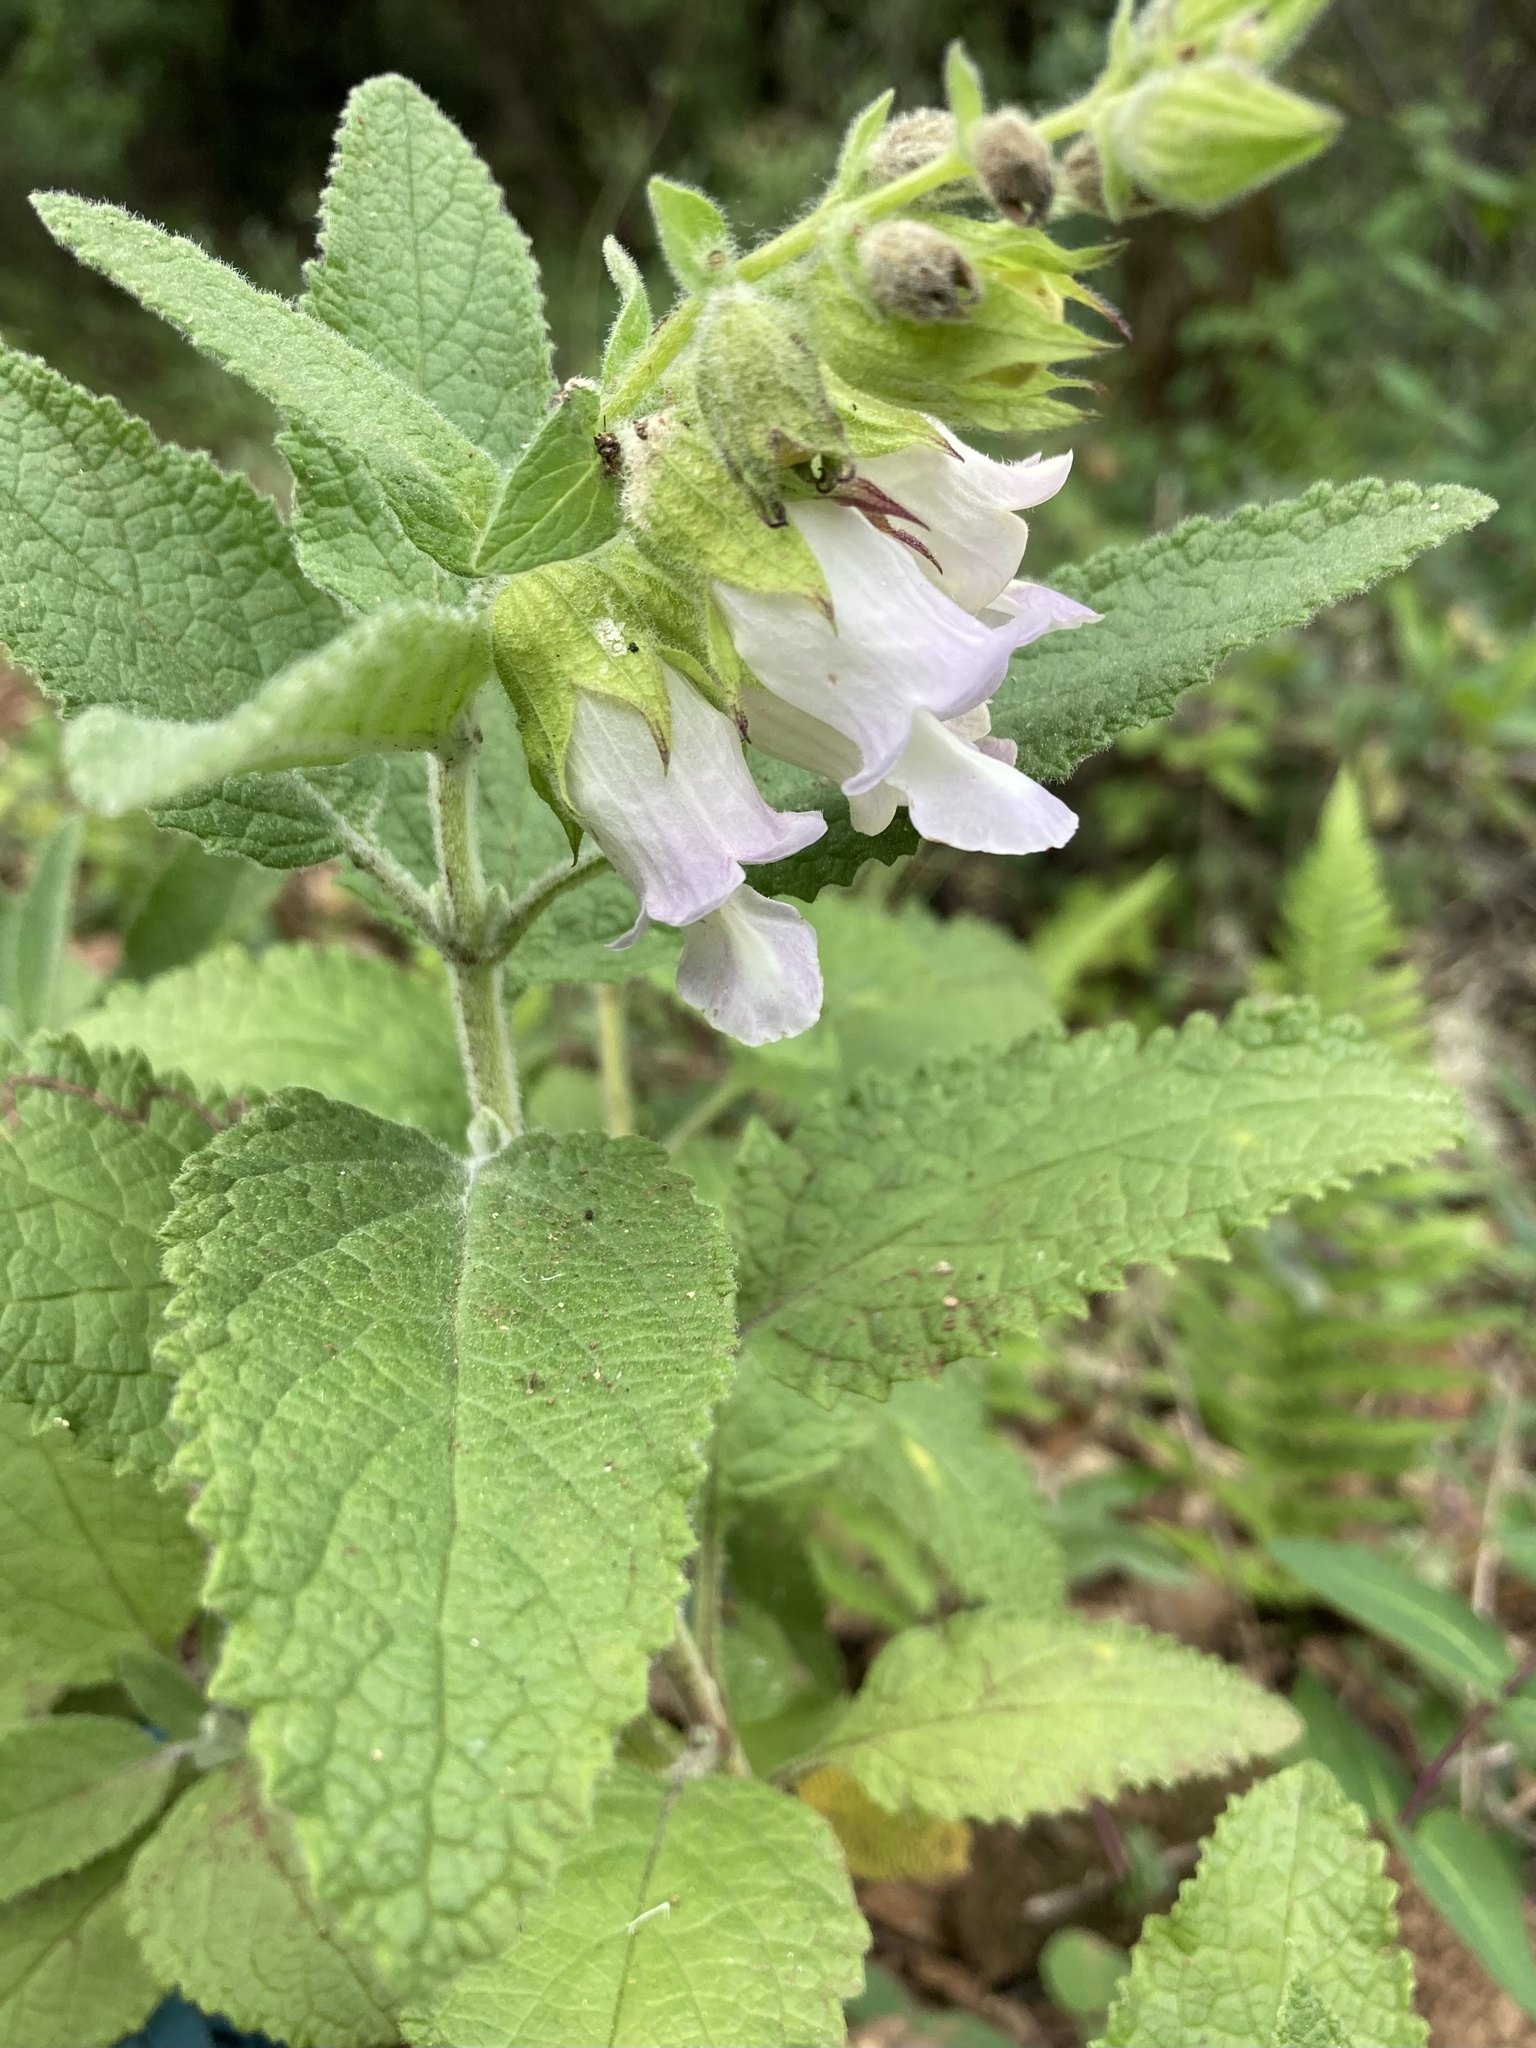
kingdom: Plantae
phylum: Tracheophyta
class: Magnoliopsida
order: Lamiales
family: Lamiaceae
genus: Lepechinia
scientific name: Lepechinia calycina
